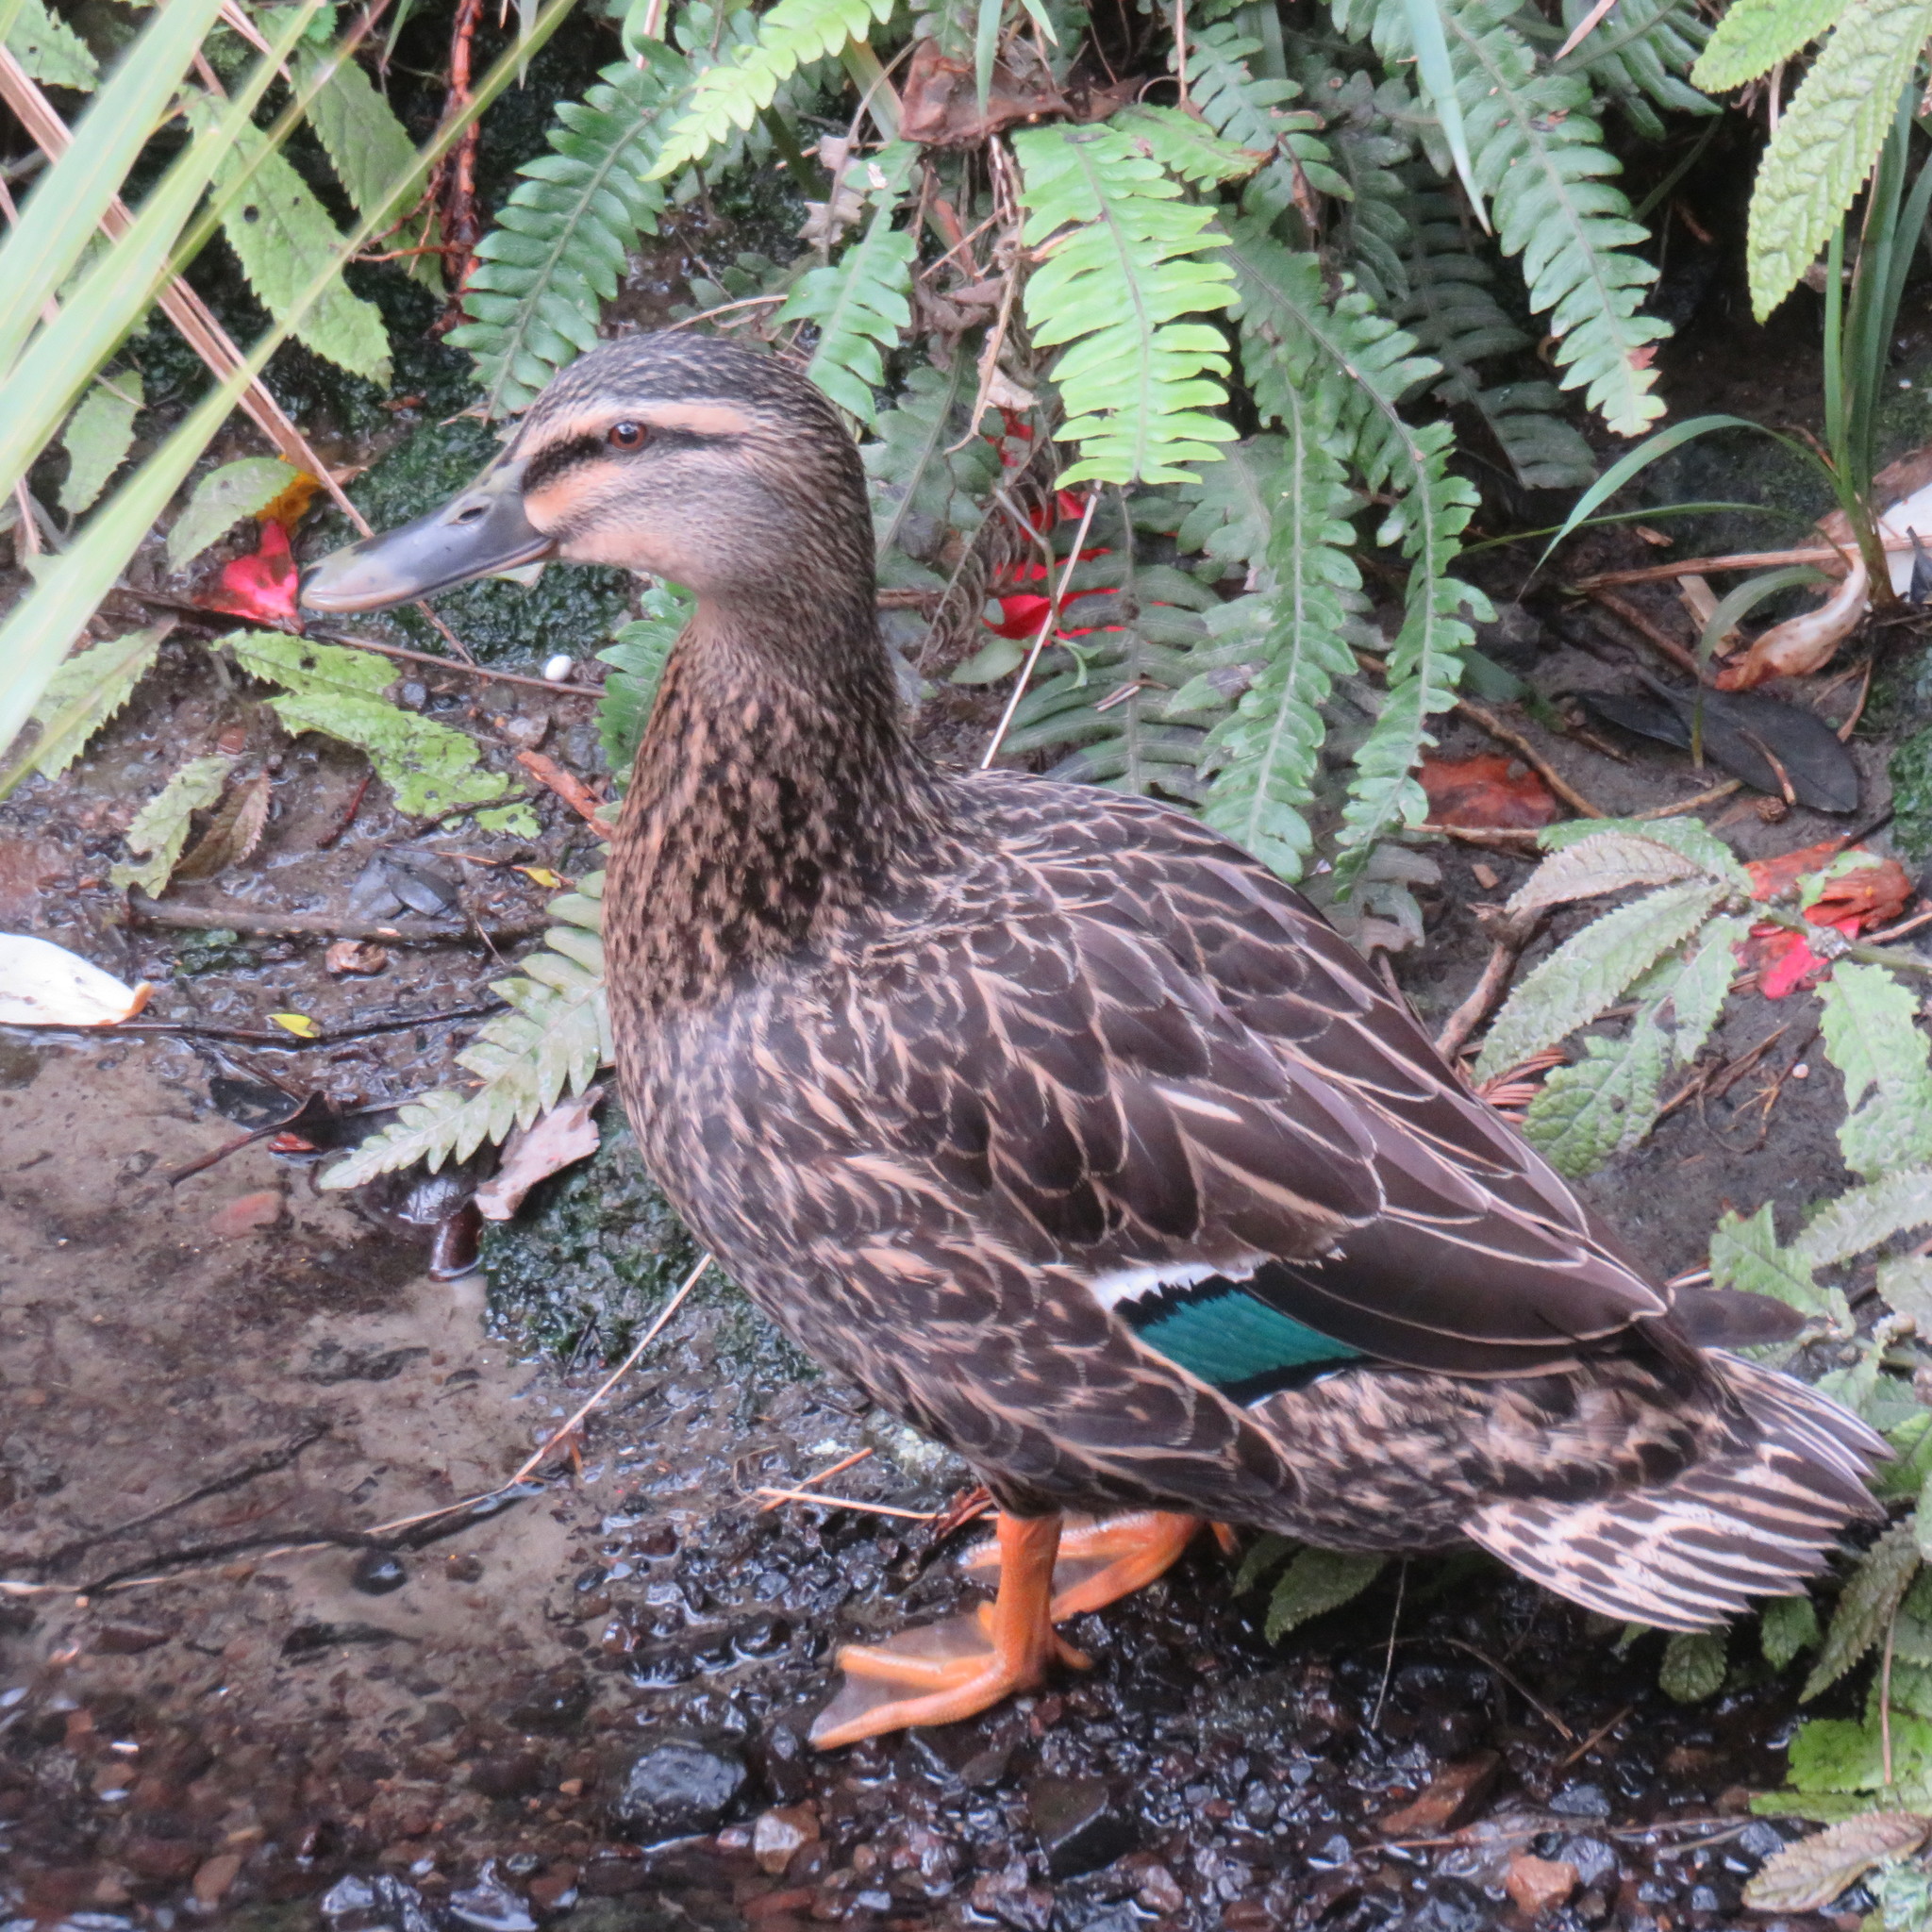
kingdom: Animalia
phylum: Chordata
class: Aves
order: Anseriformes
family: Anatidae
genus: Anas
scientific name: Anas
